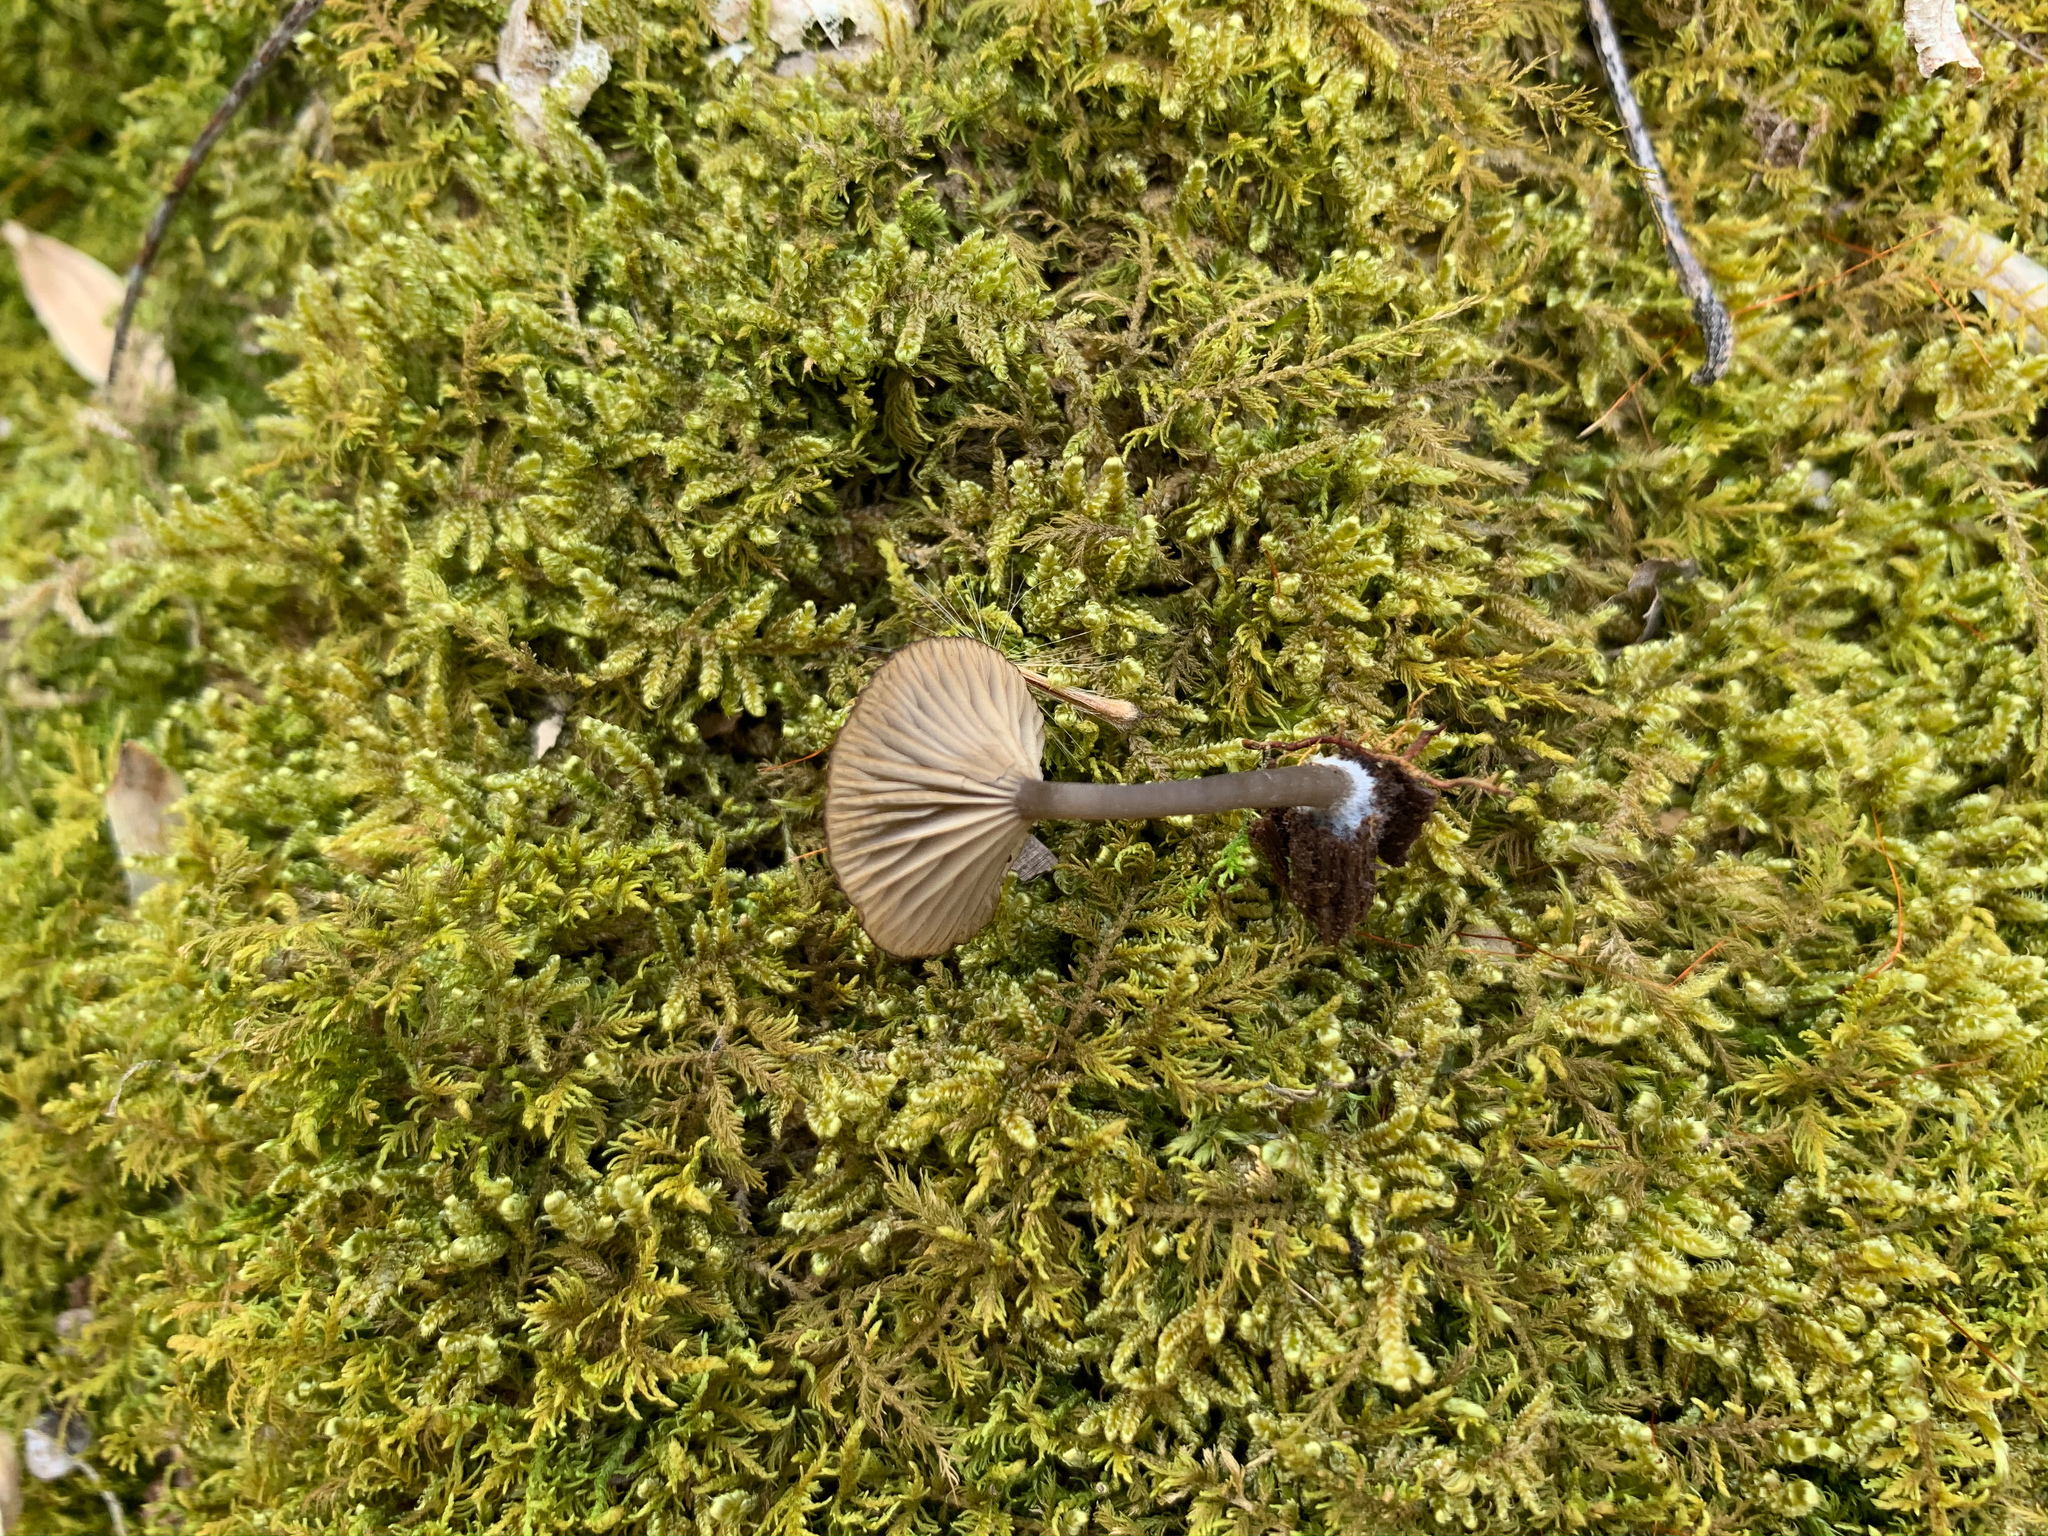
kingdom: Fungi
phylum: Basidiomycota
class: Agaricomycetes
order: Agaricales
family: Hygrophoraceae
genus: Arrhenia
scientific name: Arrhenia epichysium
